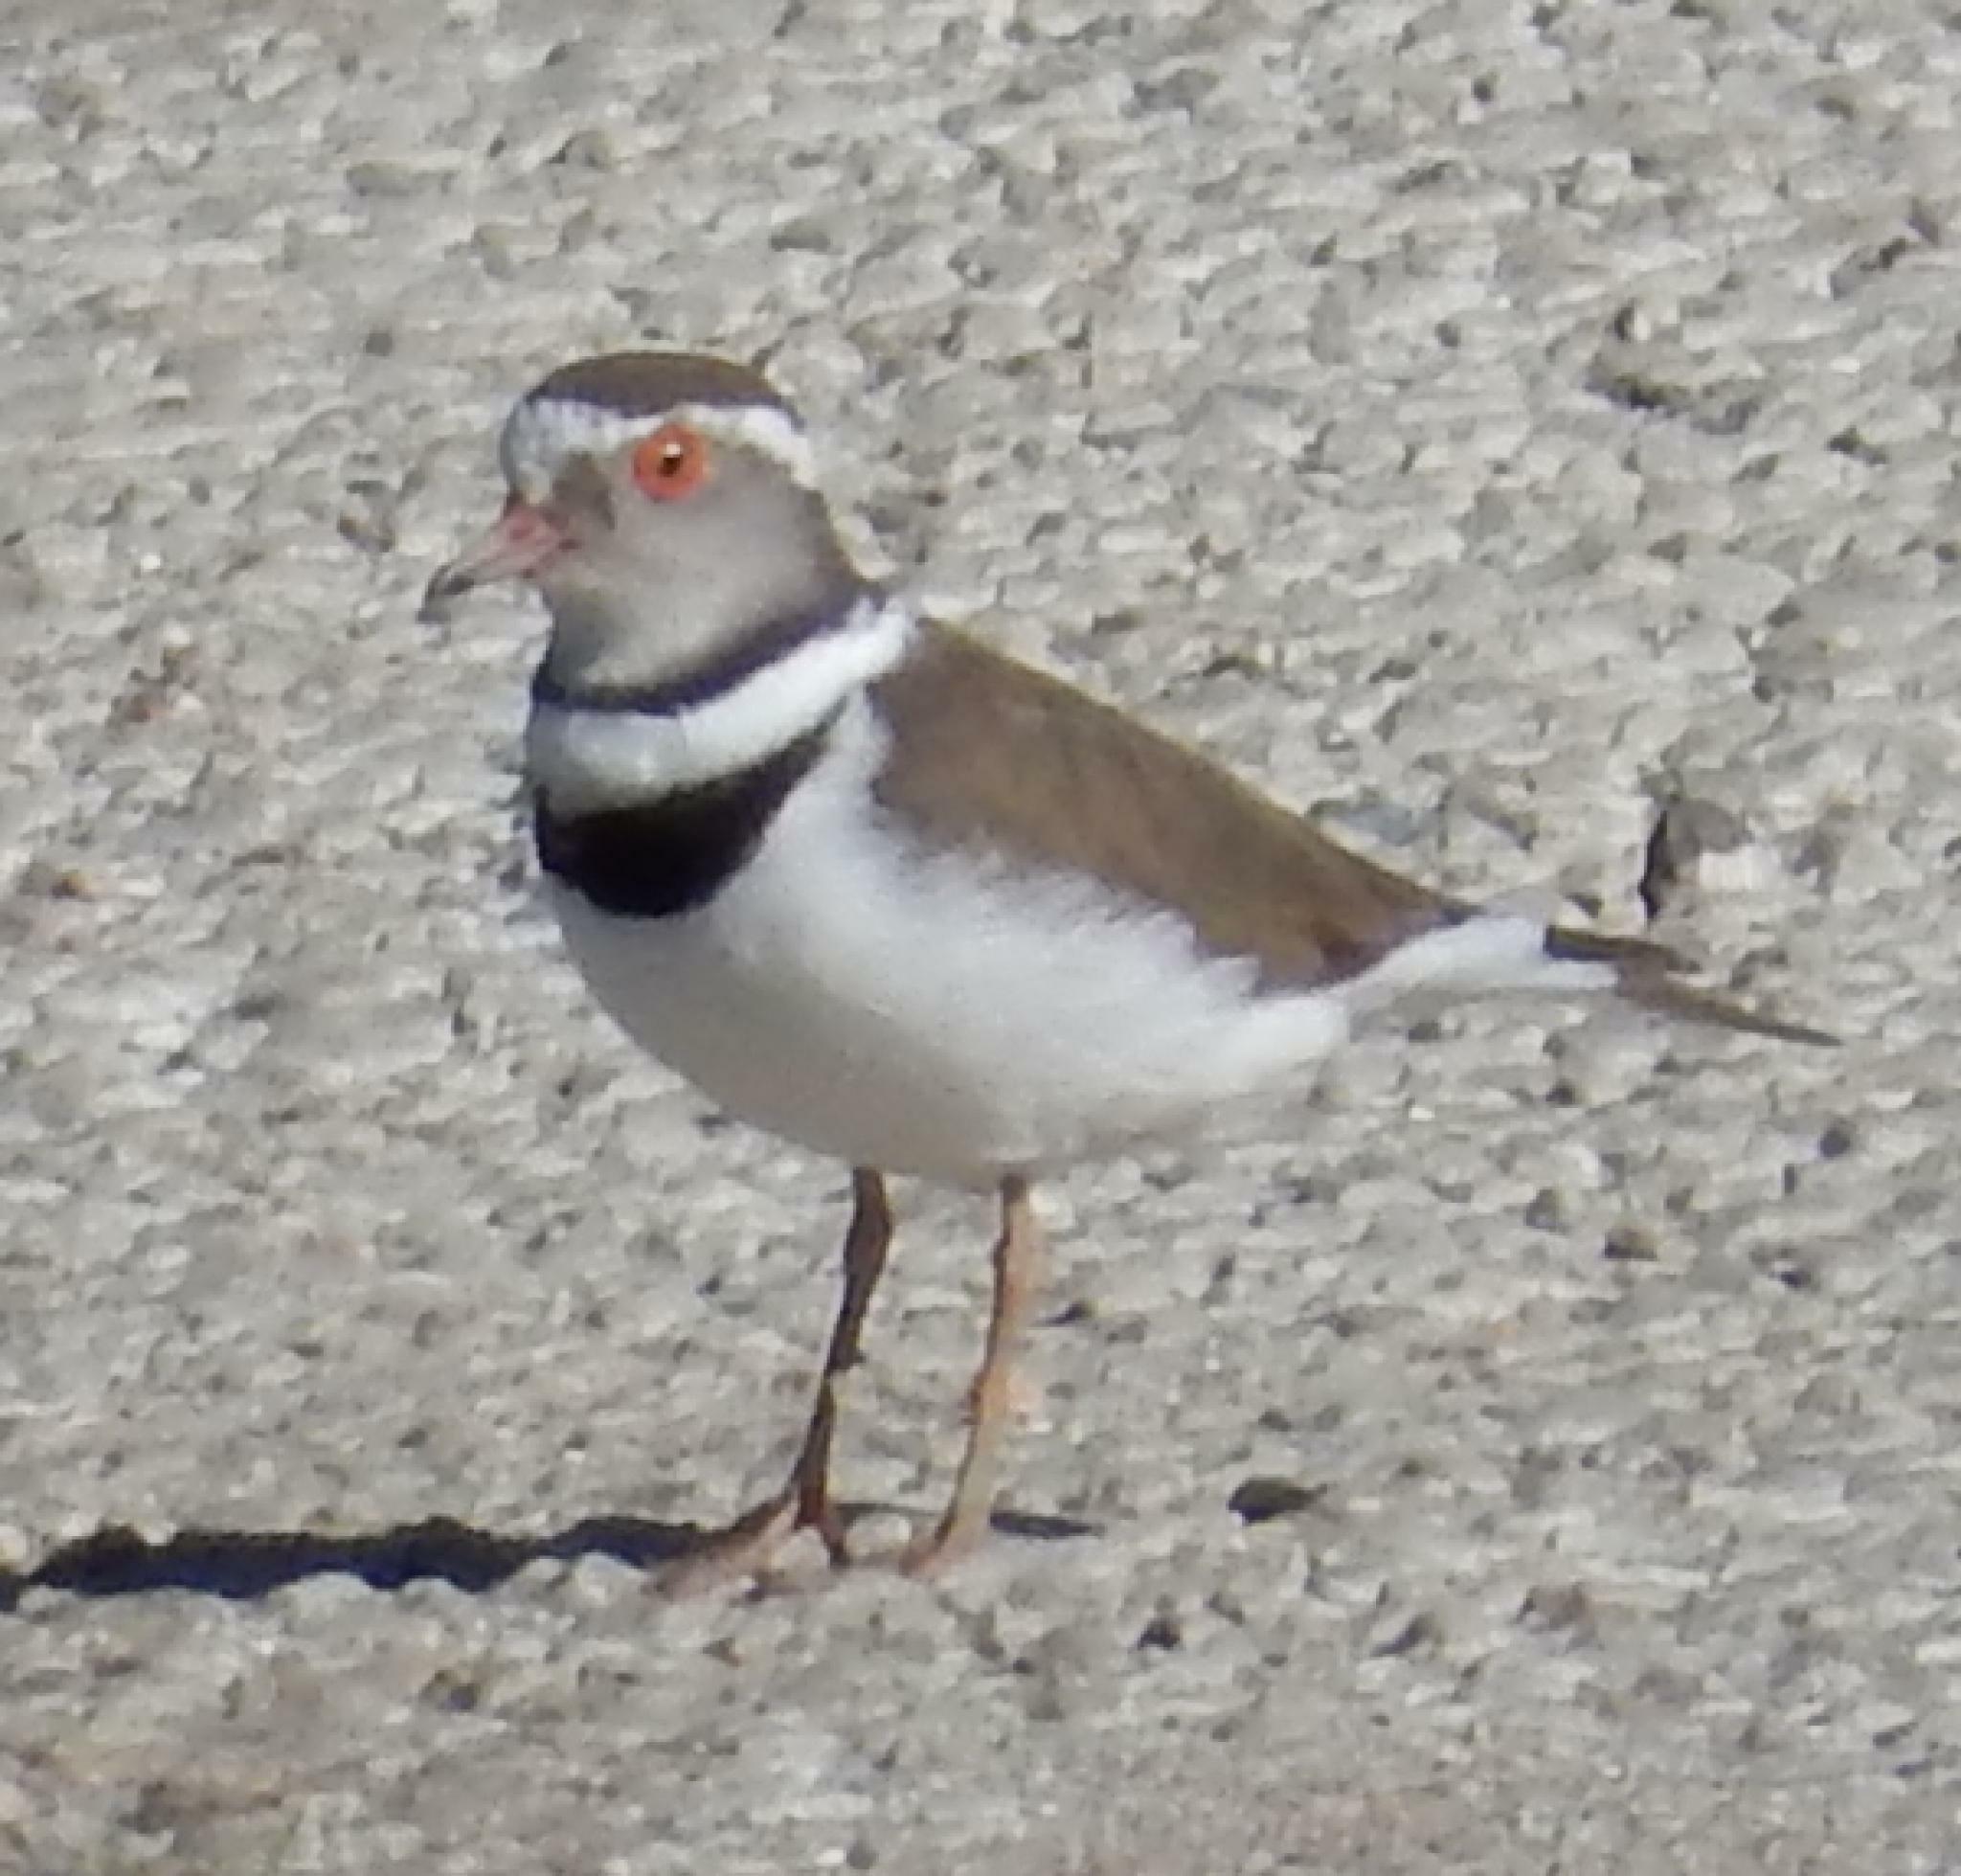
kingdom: Animalia
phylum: Chordata
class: Aves
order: Charadriiformes
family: Charadriidae
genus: Charadrius
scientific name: Charadrius tricollaris
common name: Three-banded plover
